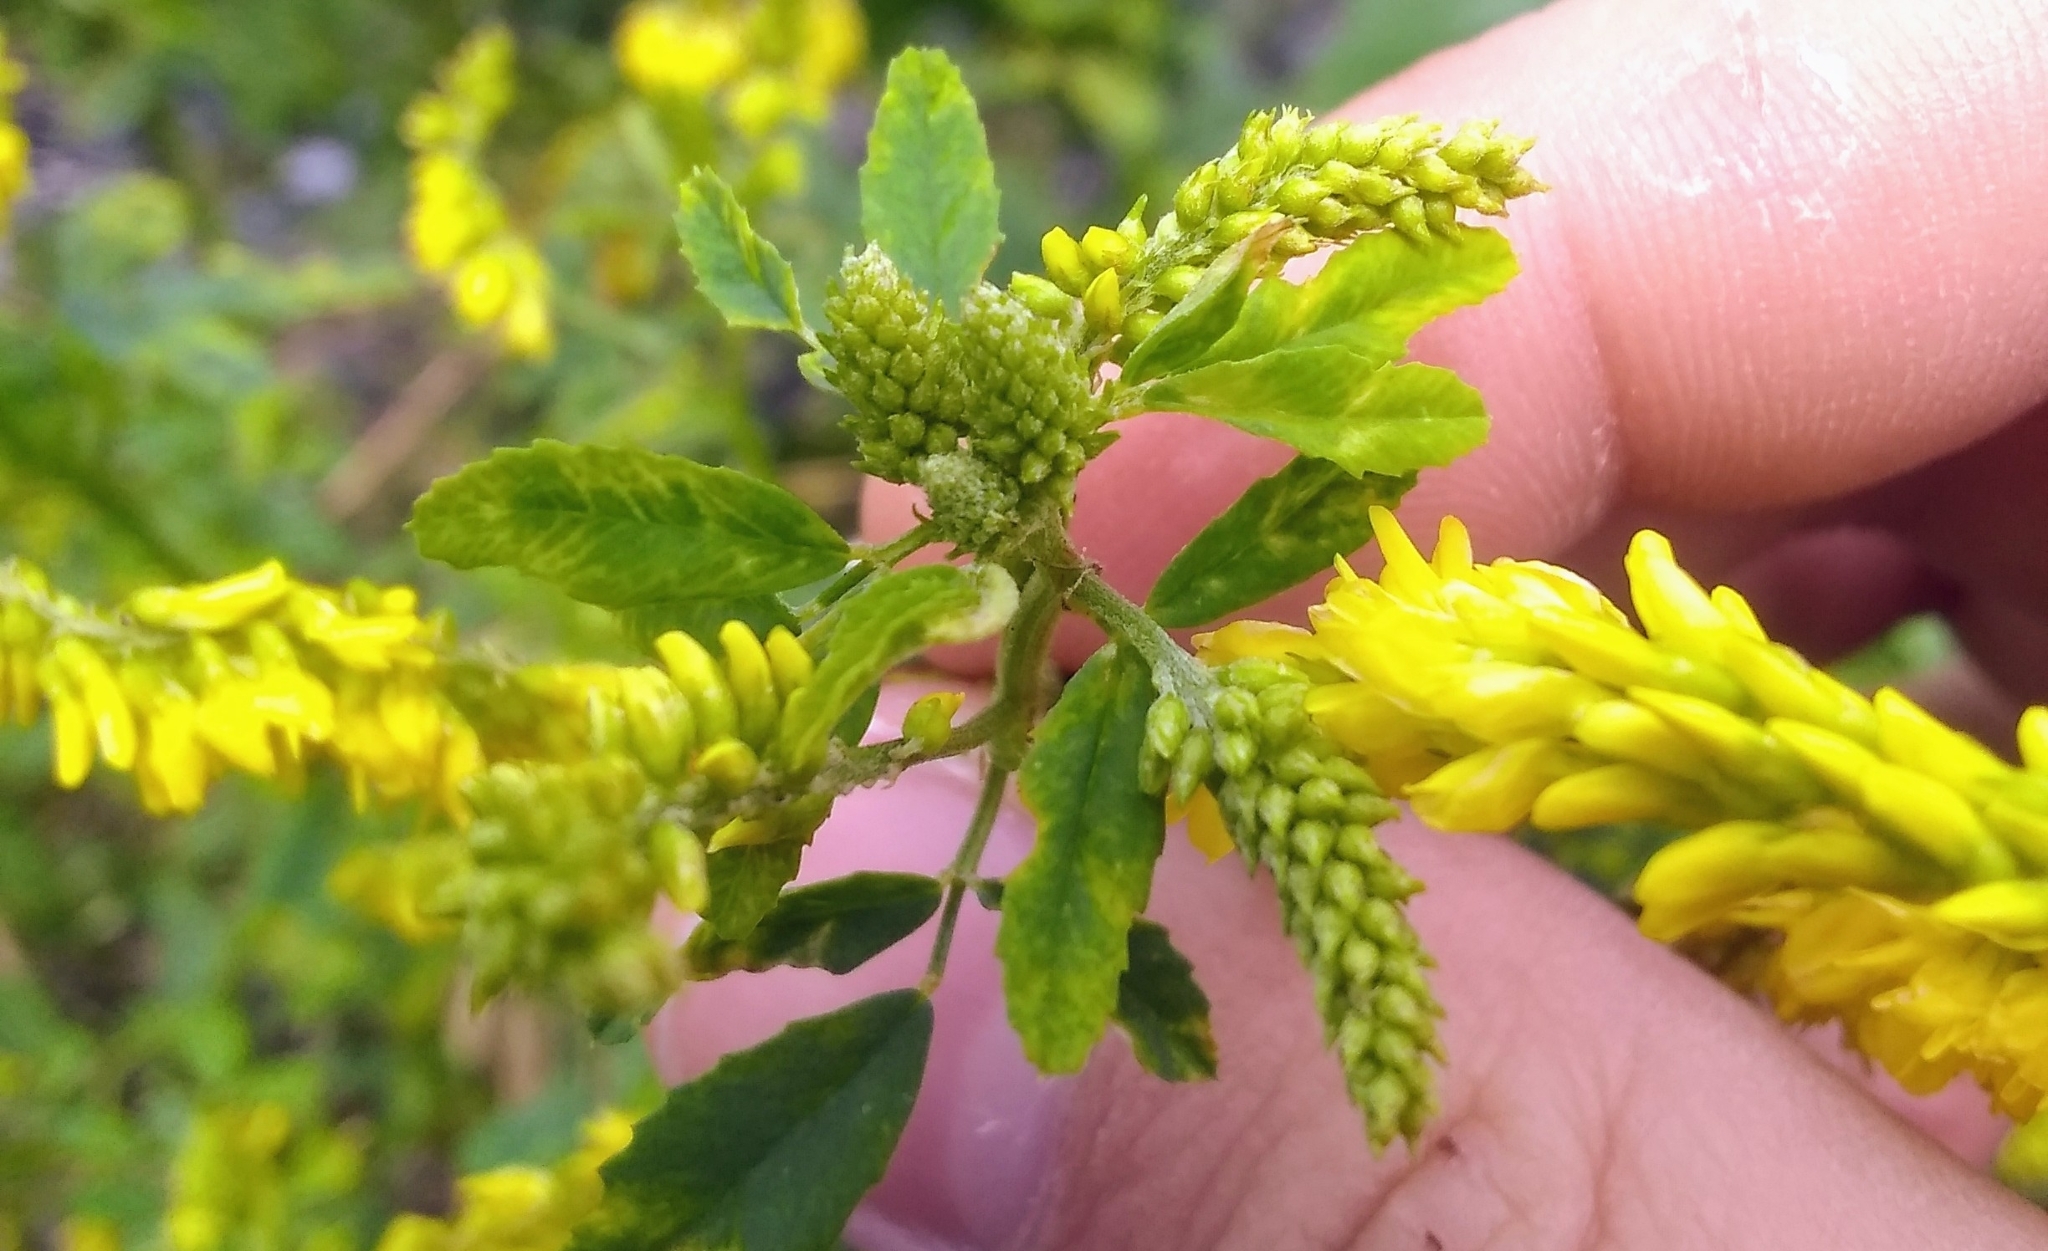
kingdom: Plantae
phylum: Tracheophyta
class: Magnoliopsida
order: Fabales
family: Fabaceae
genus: Melilotus
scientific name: Melilotus officinalis
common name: Sweetclover
